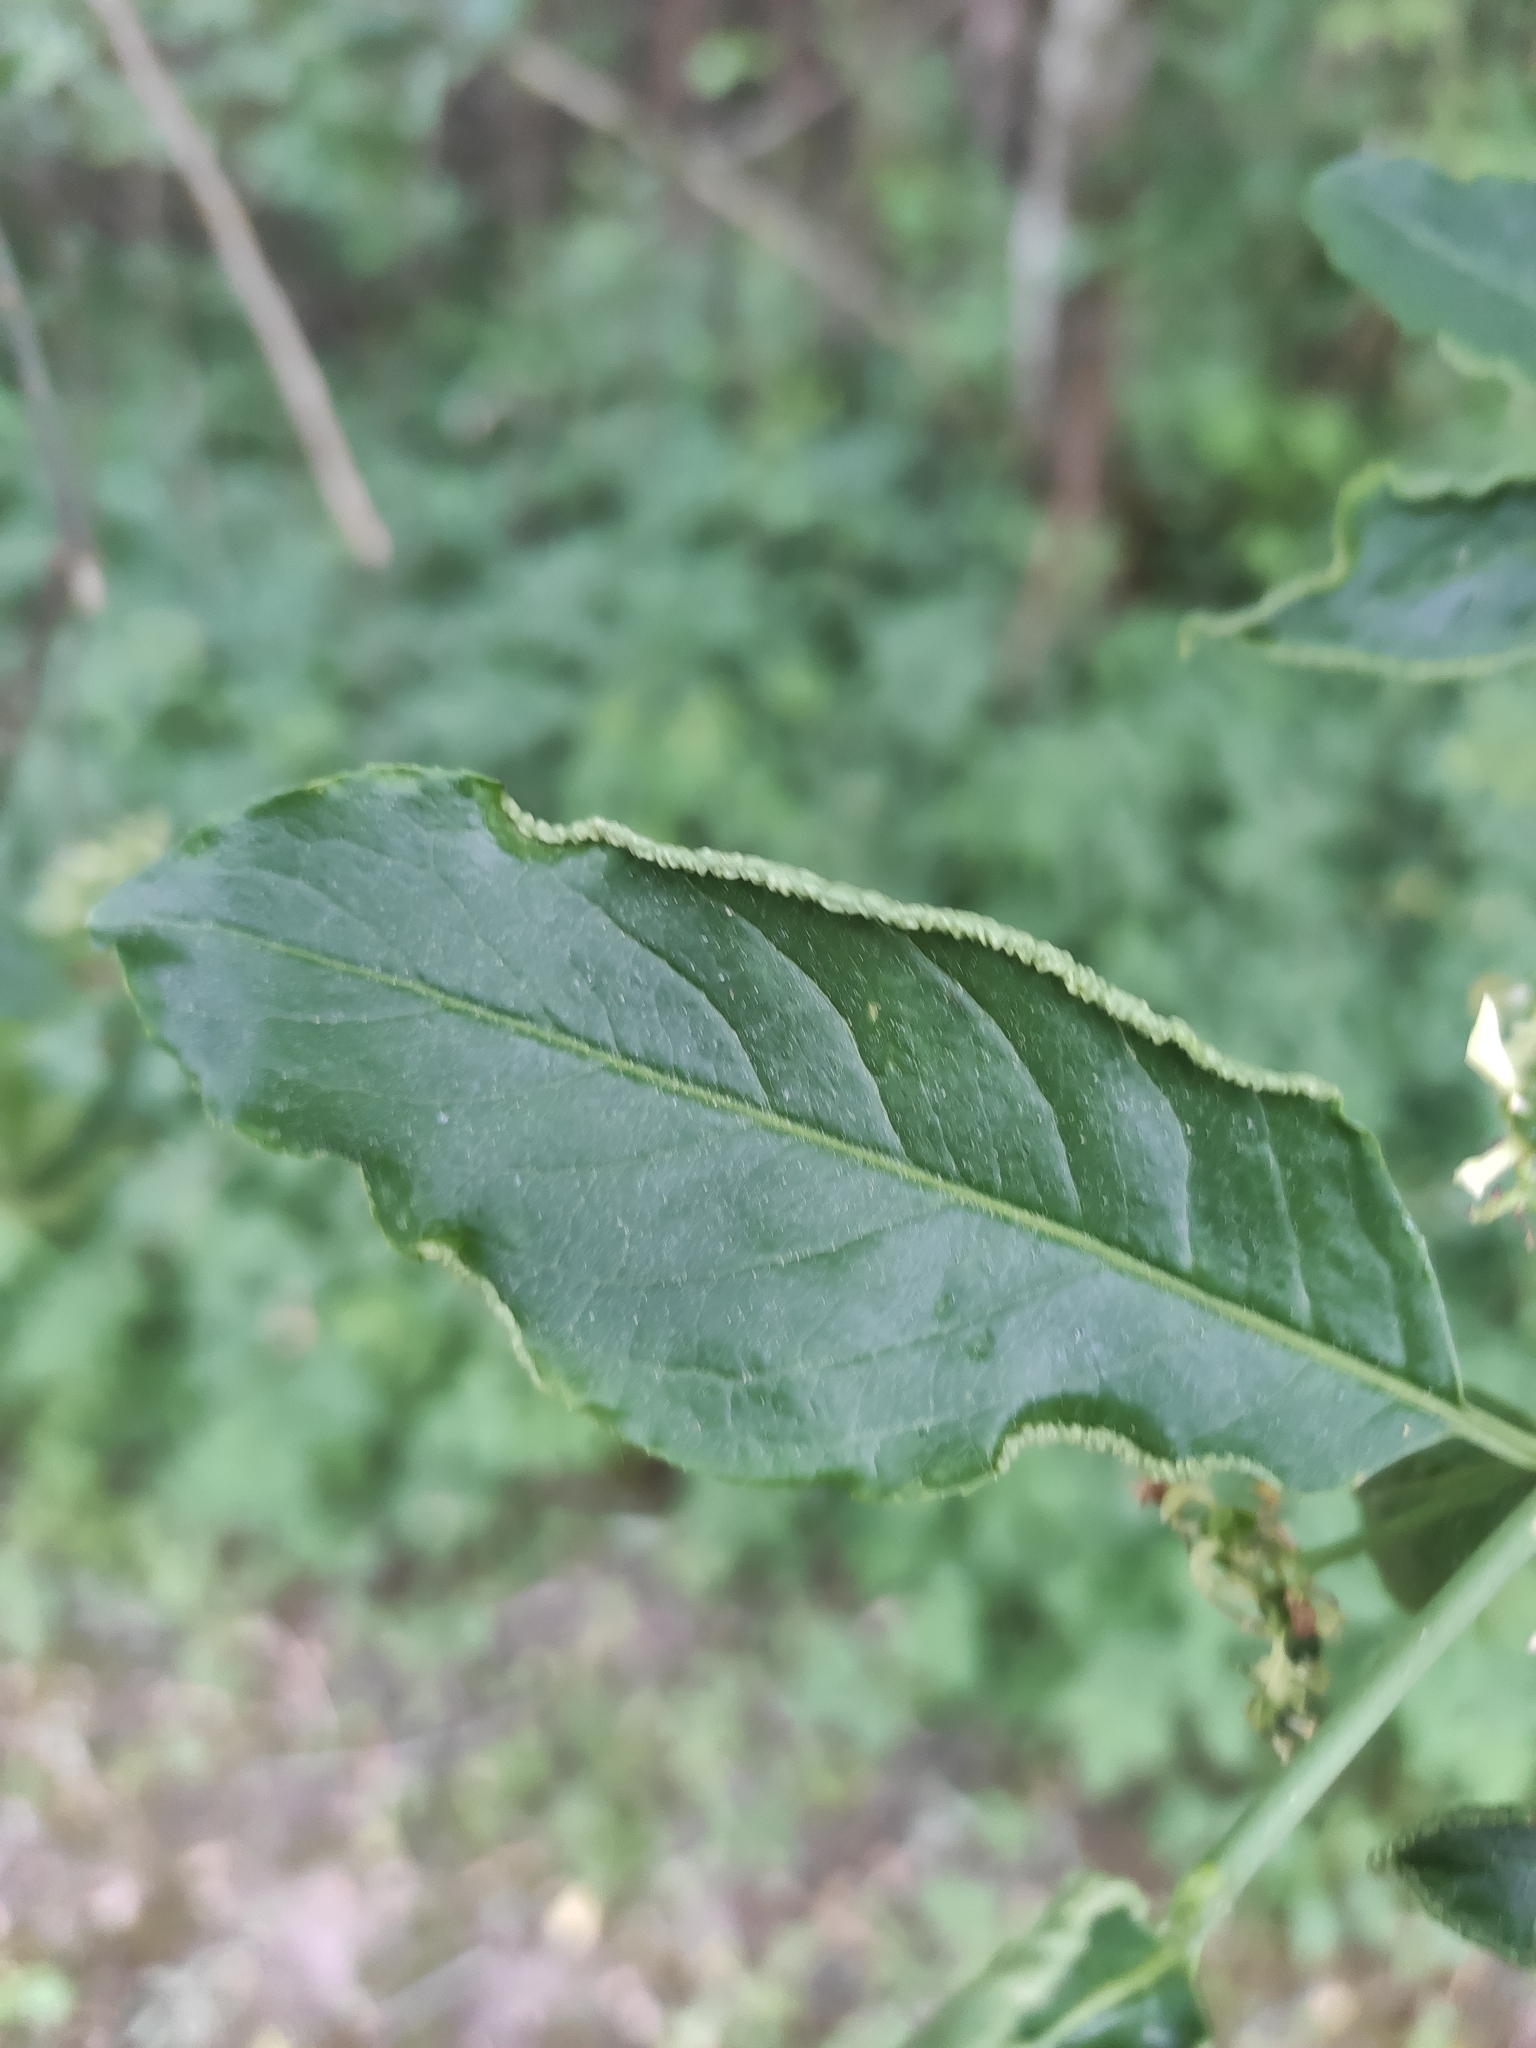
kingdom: Animalia
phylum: Arthropoda
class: Arachnida
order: Trombidiformes
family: Eriophyidae
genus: Stenacis
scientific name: Stenacis evonymi
